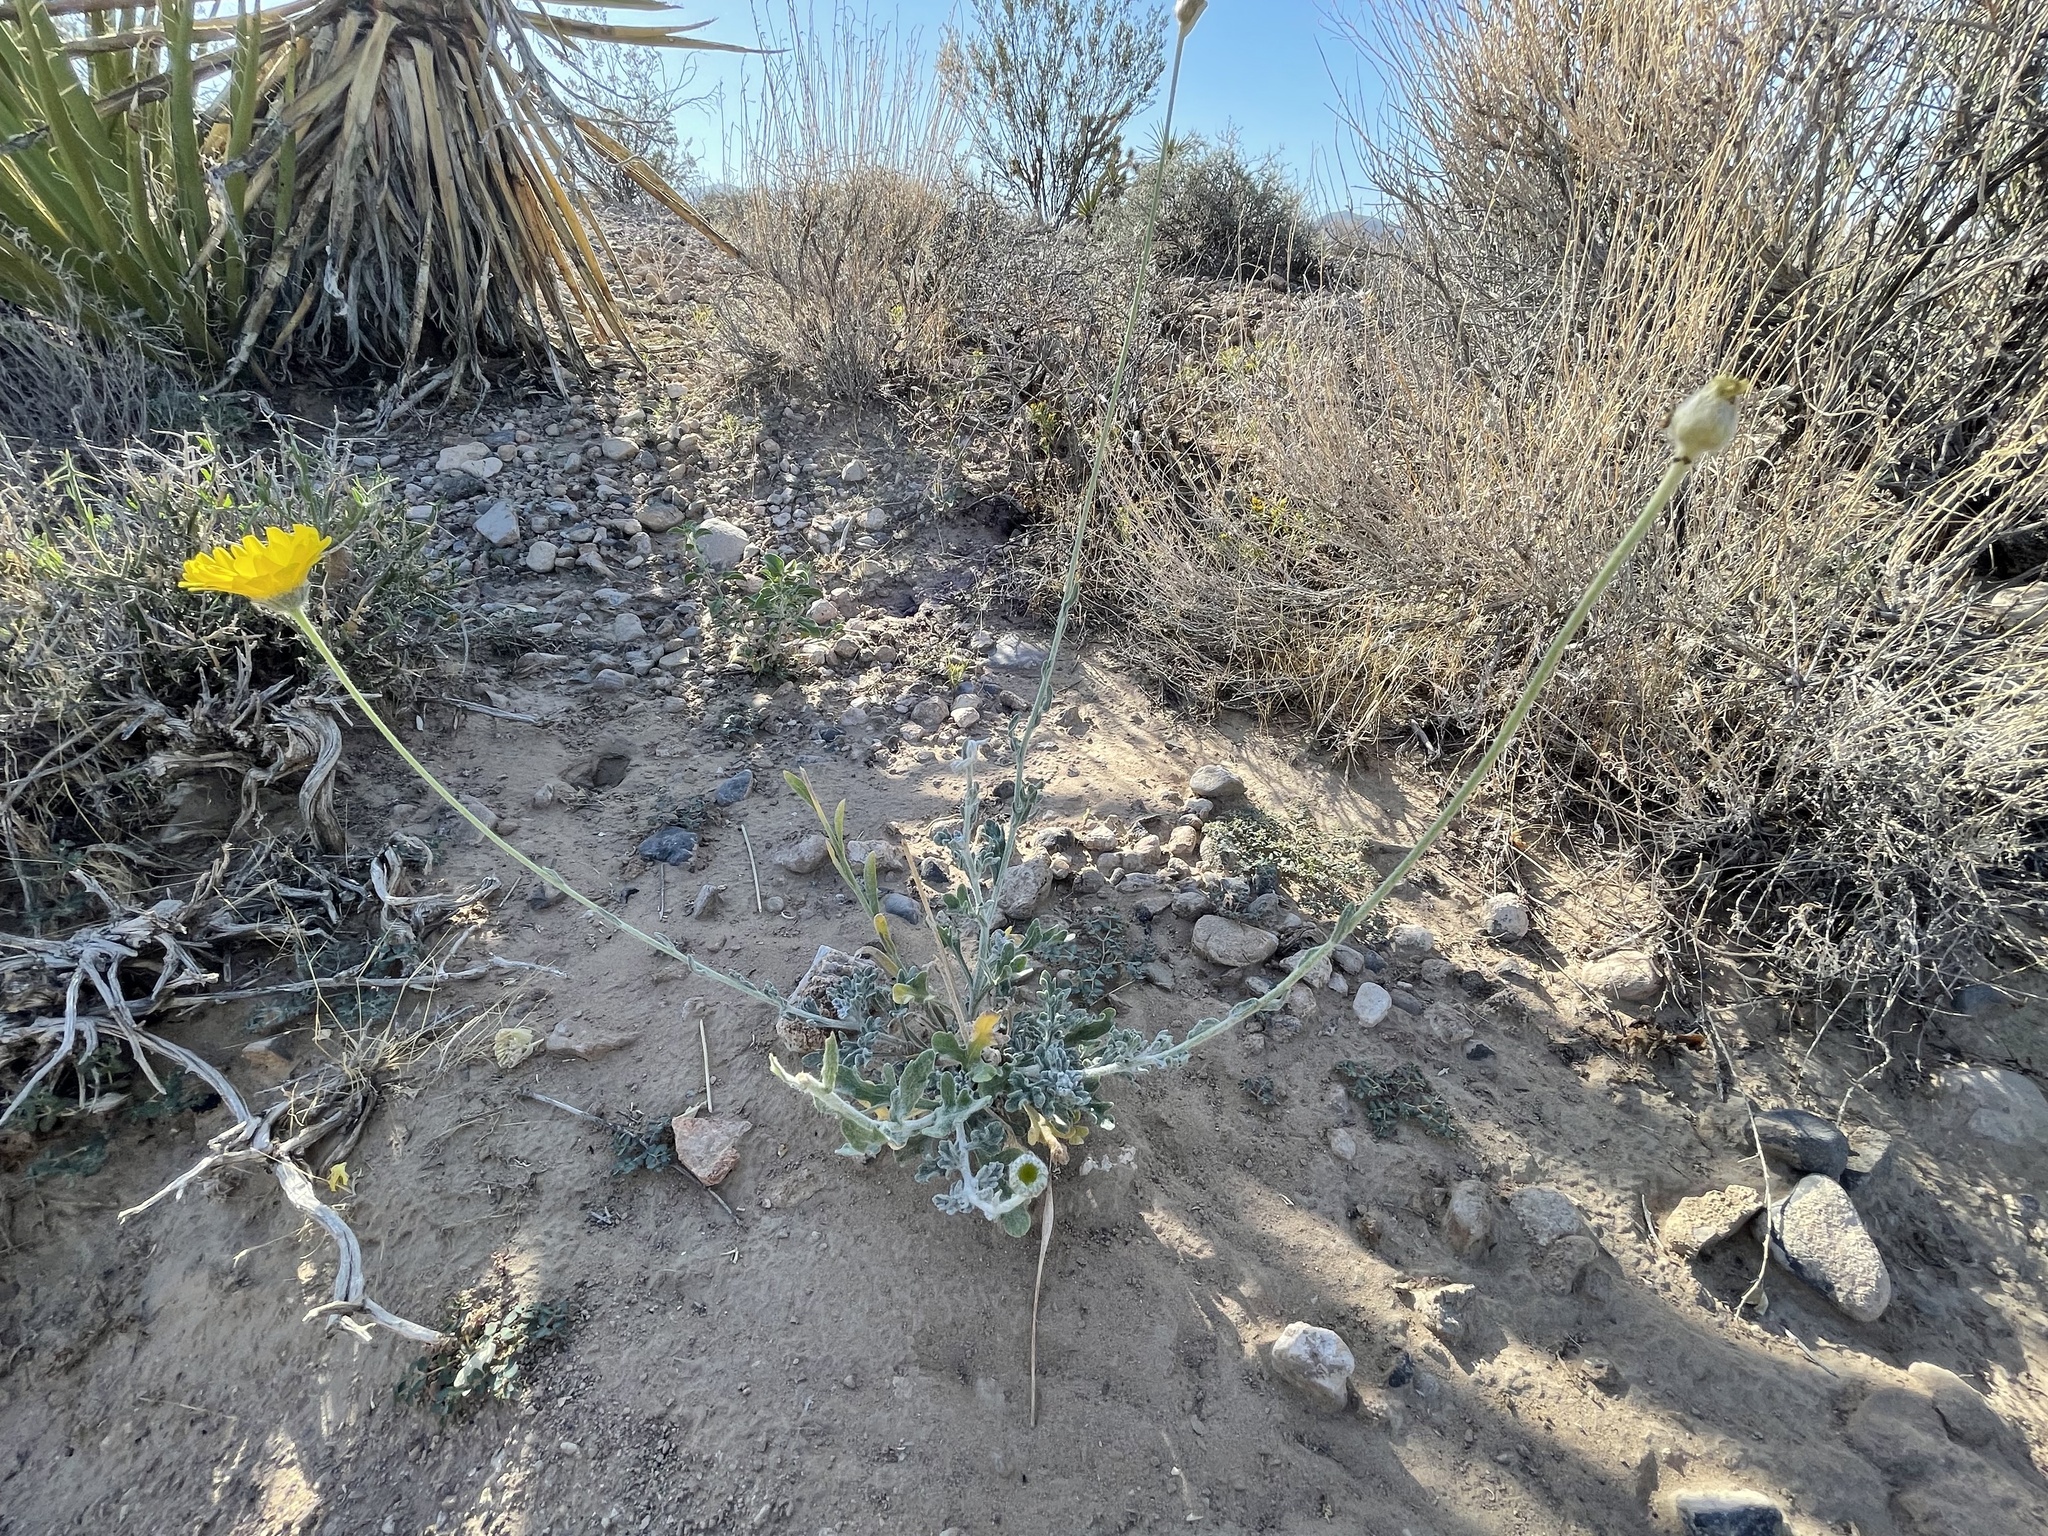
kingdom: Plantae
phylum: Tracheophyta
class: Magnoliopsida
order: Asterales
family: Asteraceae
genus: Baileya
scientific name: Baileya multiradiata
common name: Desert-marigold
